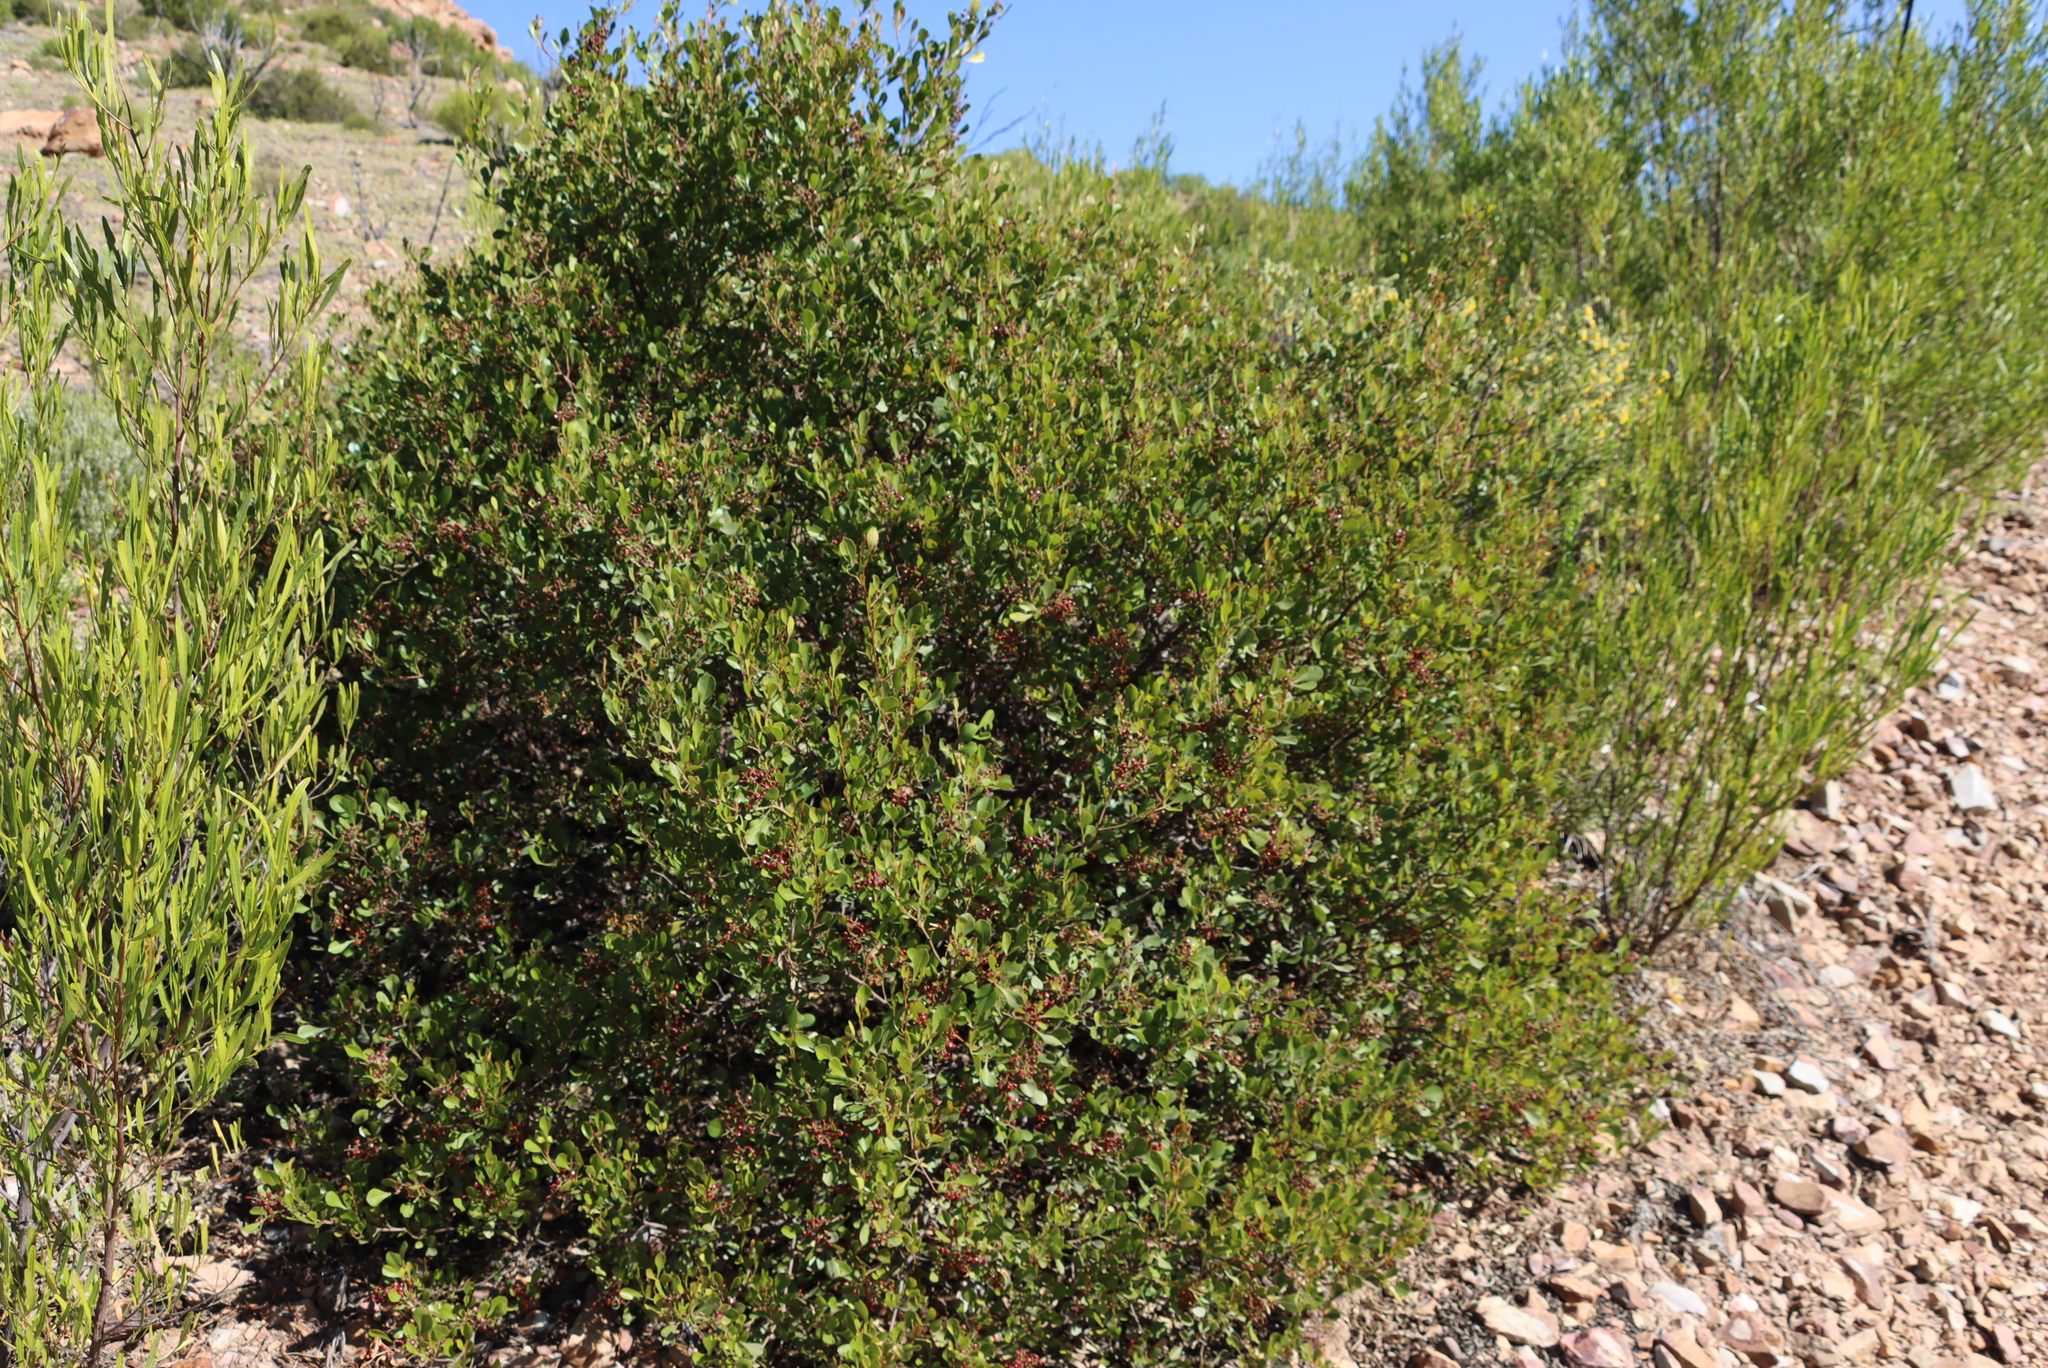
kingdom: Plantae
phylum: Tracheophyta
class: Magnoliopsida
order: Sapindales
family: Anacardiaceae
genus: Searsia
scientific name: Searsia pallens
